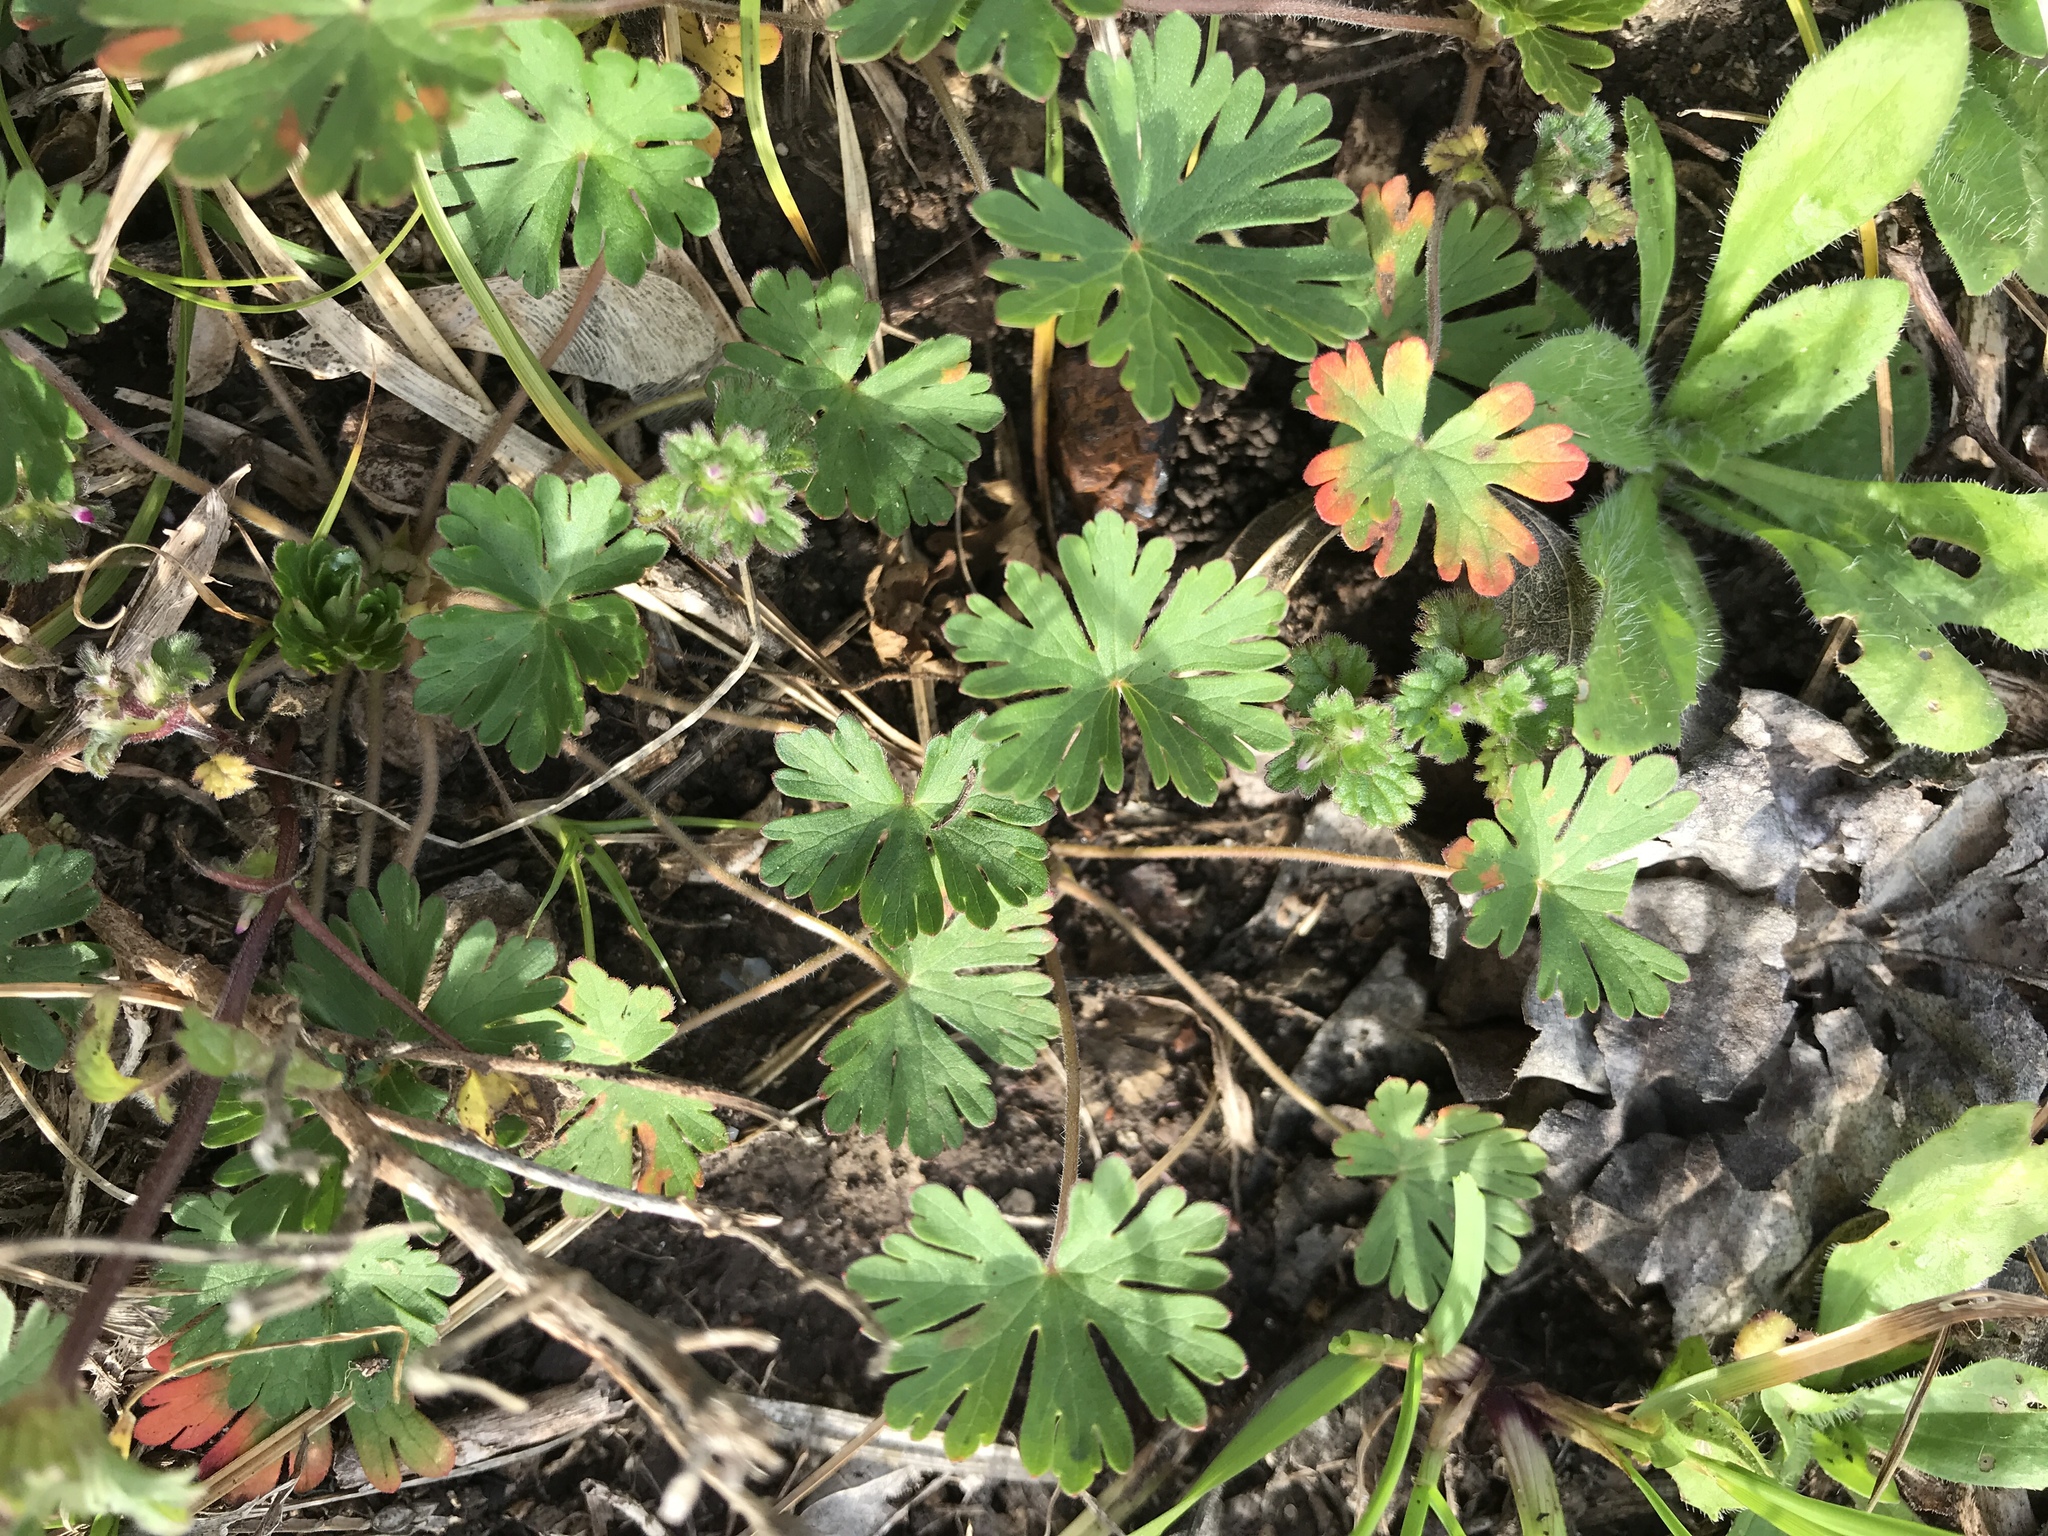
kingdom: Plantae
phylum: Tracheophyta
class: Magnoliopsida
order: Geraniales
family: Geraniaceae
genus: Geranium
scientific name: Geranium carolinianum
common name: Carolina crane's-bill
